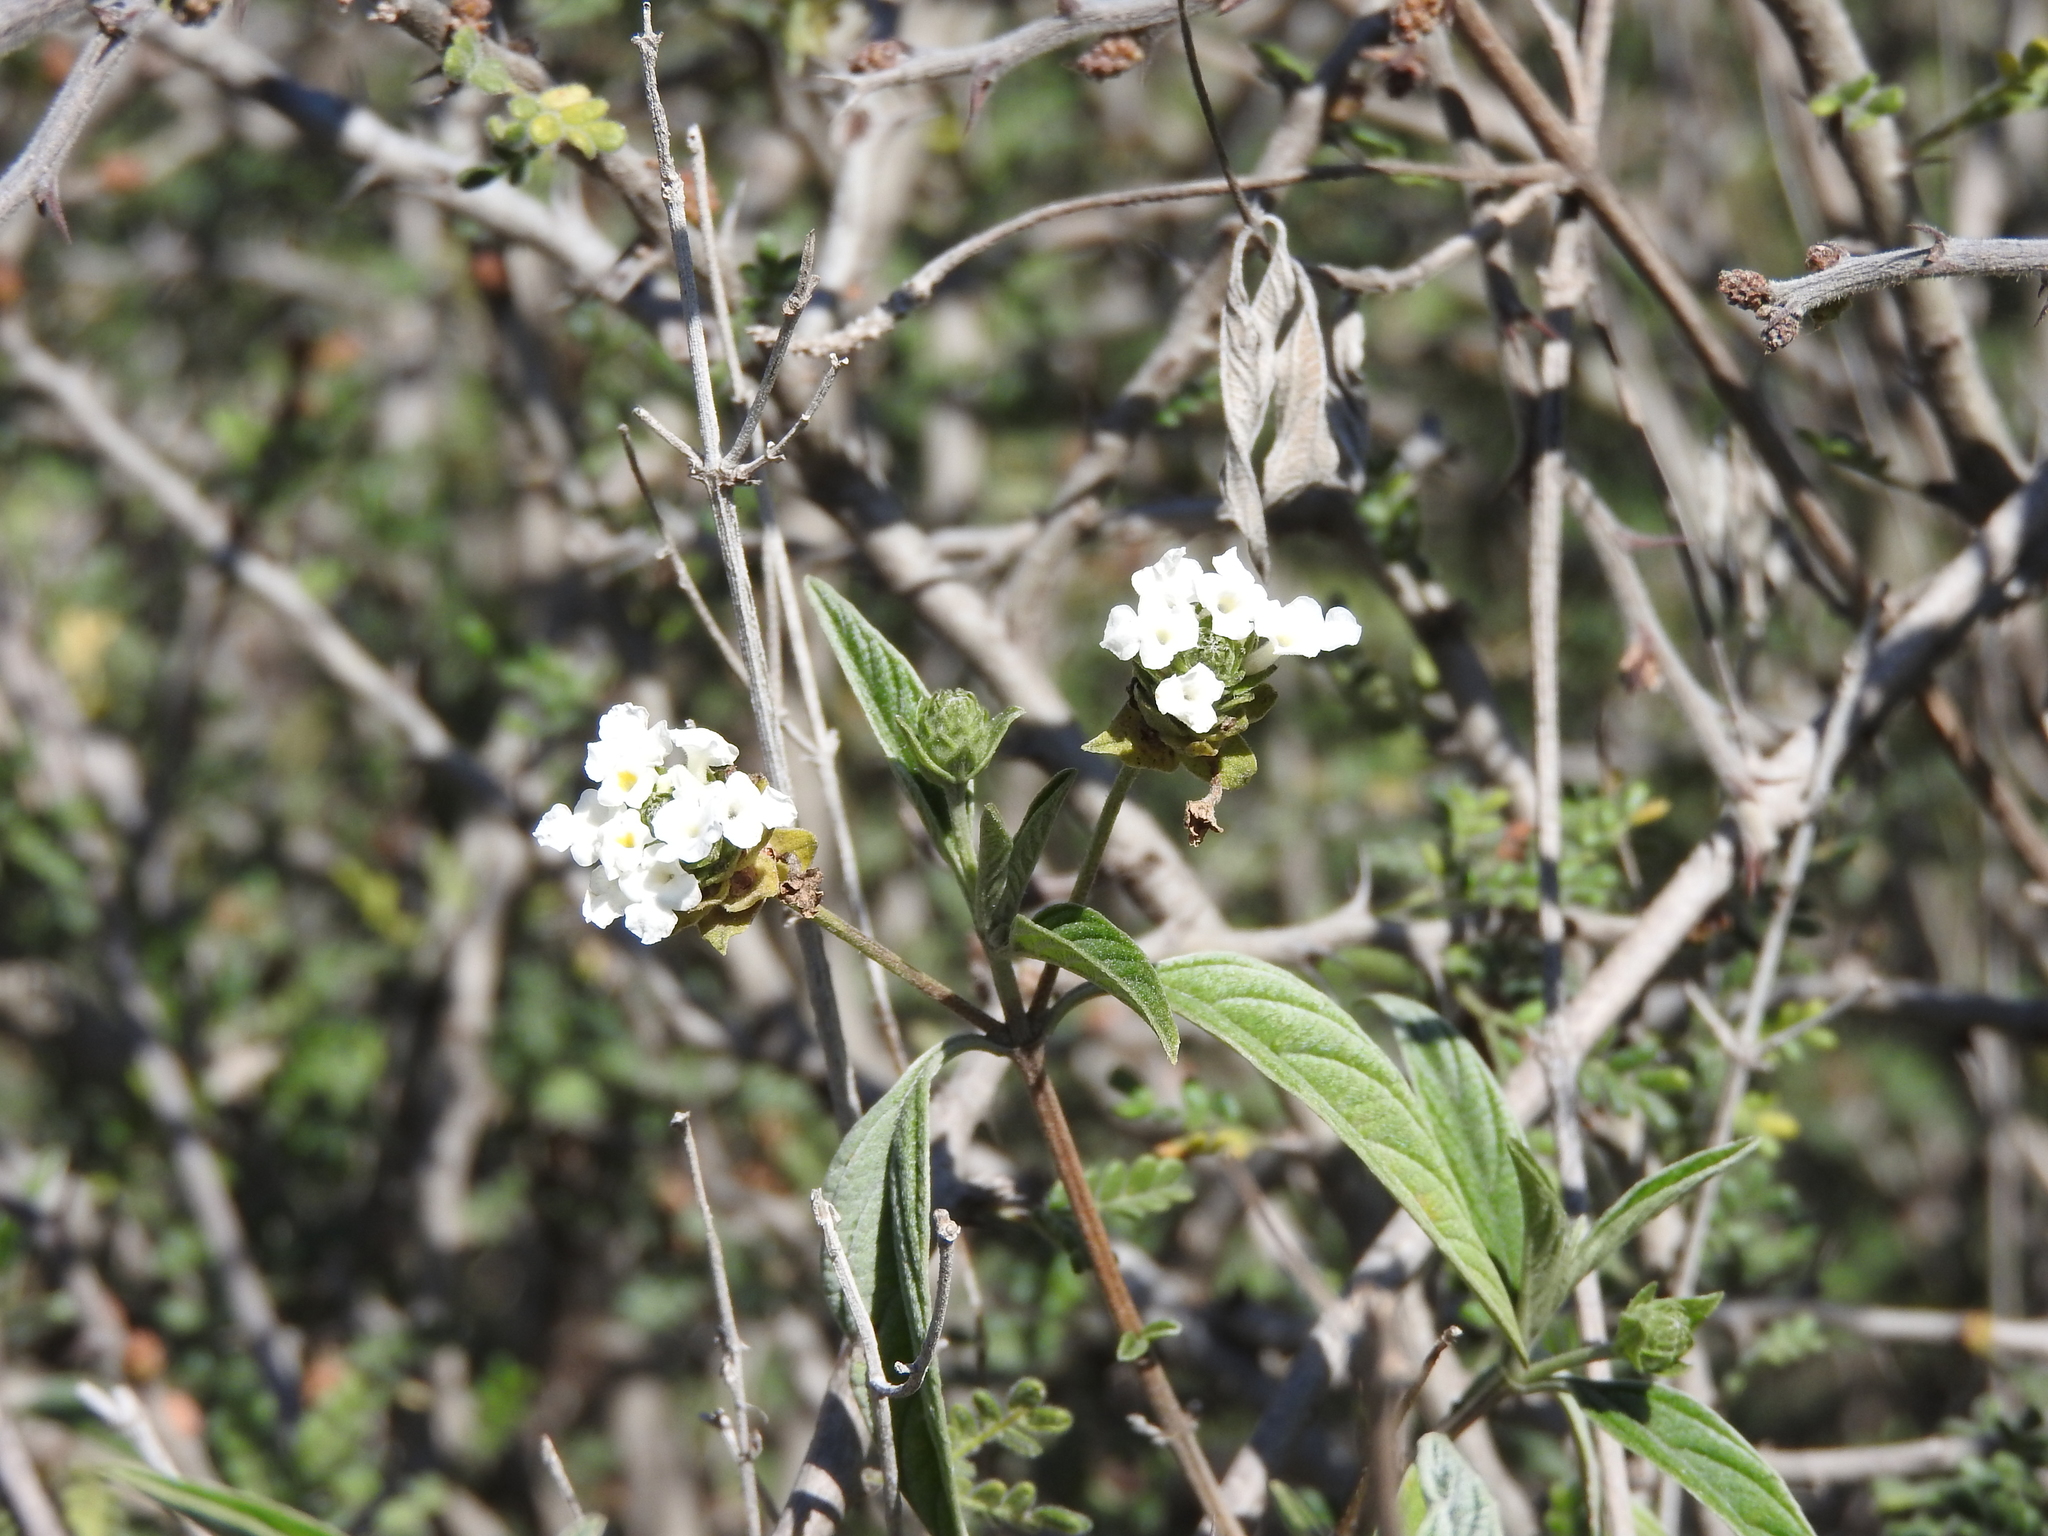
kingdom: Plantae
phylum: Tracheophyta
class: Magnoliopsida
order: Lamiales
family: Verbenaceae
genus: Lantana
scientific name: Lantana canescens
